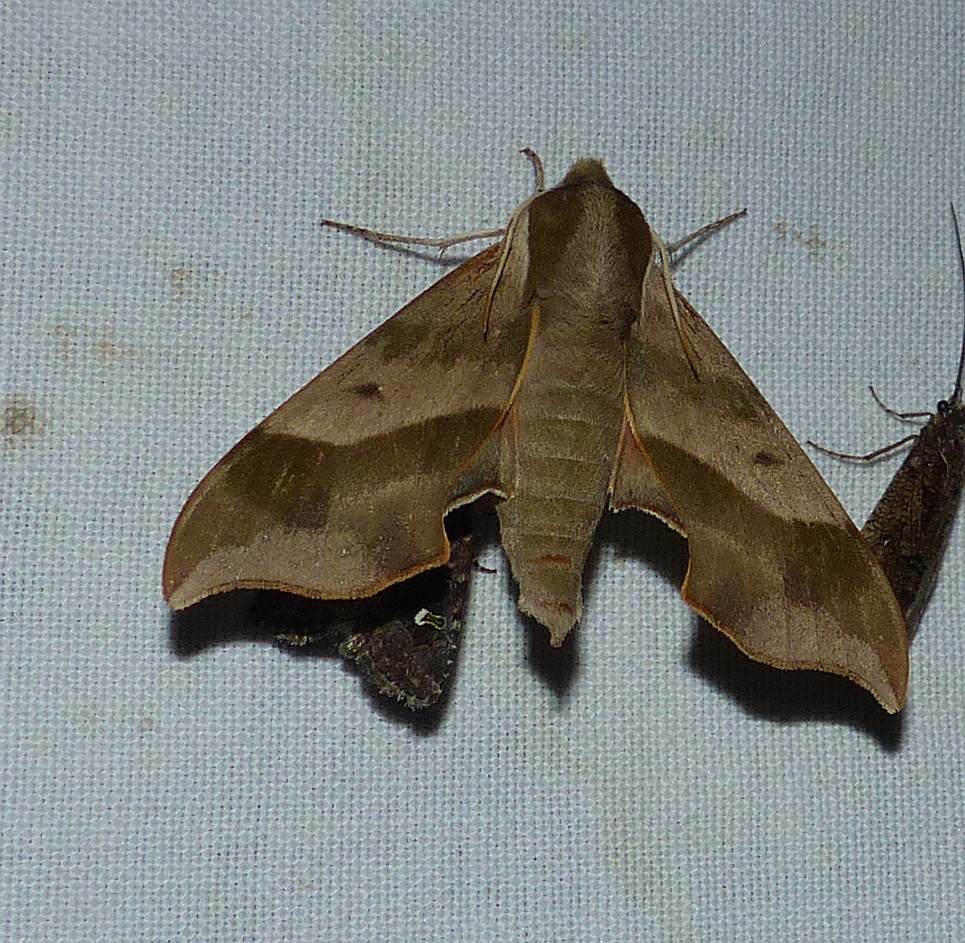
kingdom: Animalia
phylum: Arthropoda
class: Insecta
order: Lepidoptera
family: Sphingidae
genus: Darapsa
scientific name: Darapsa myron
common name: Hog sphinx
